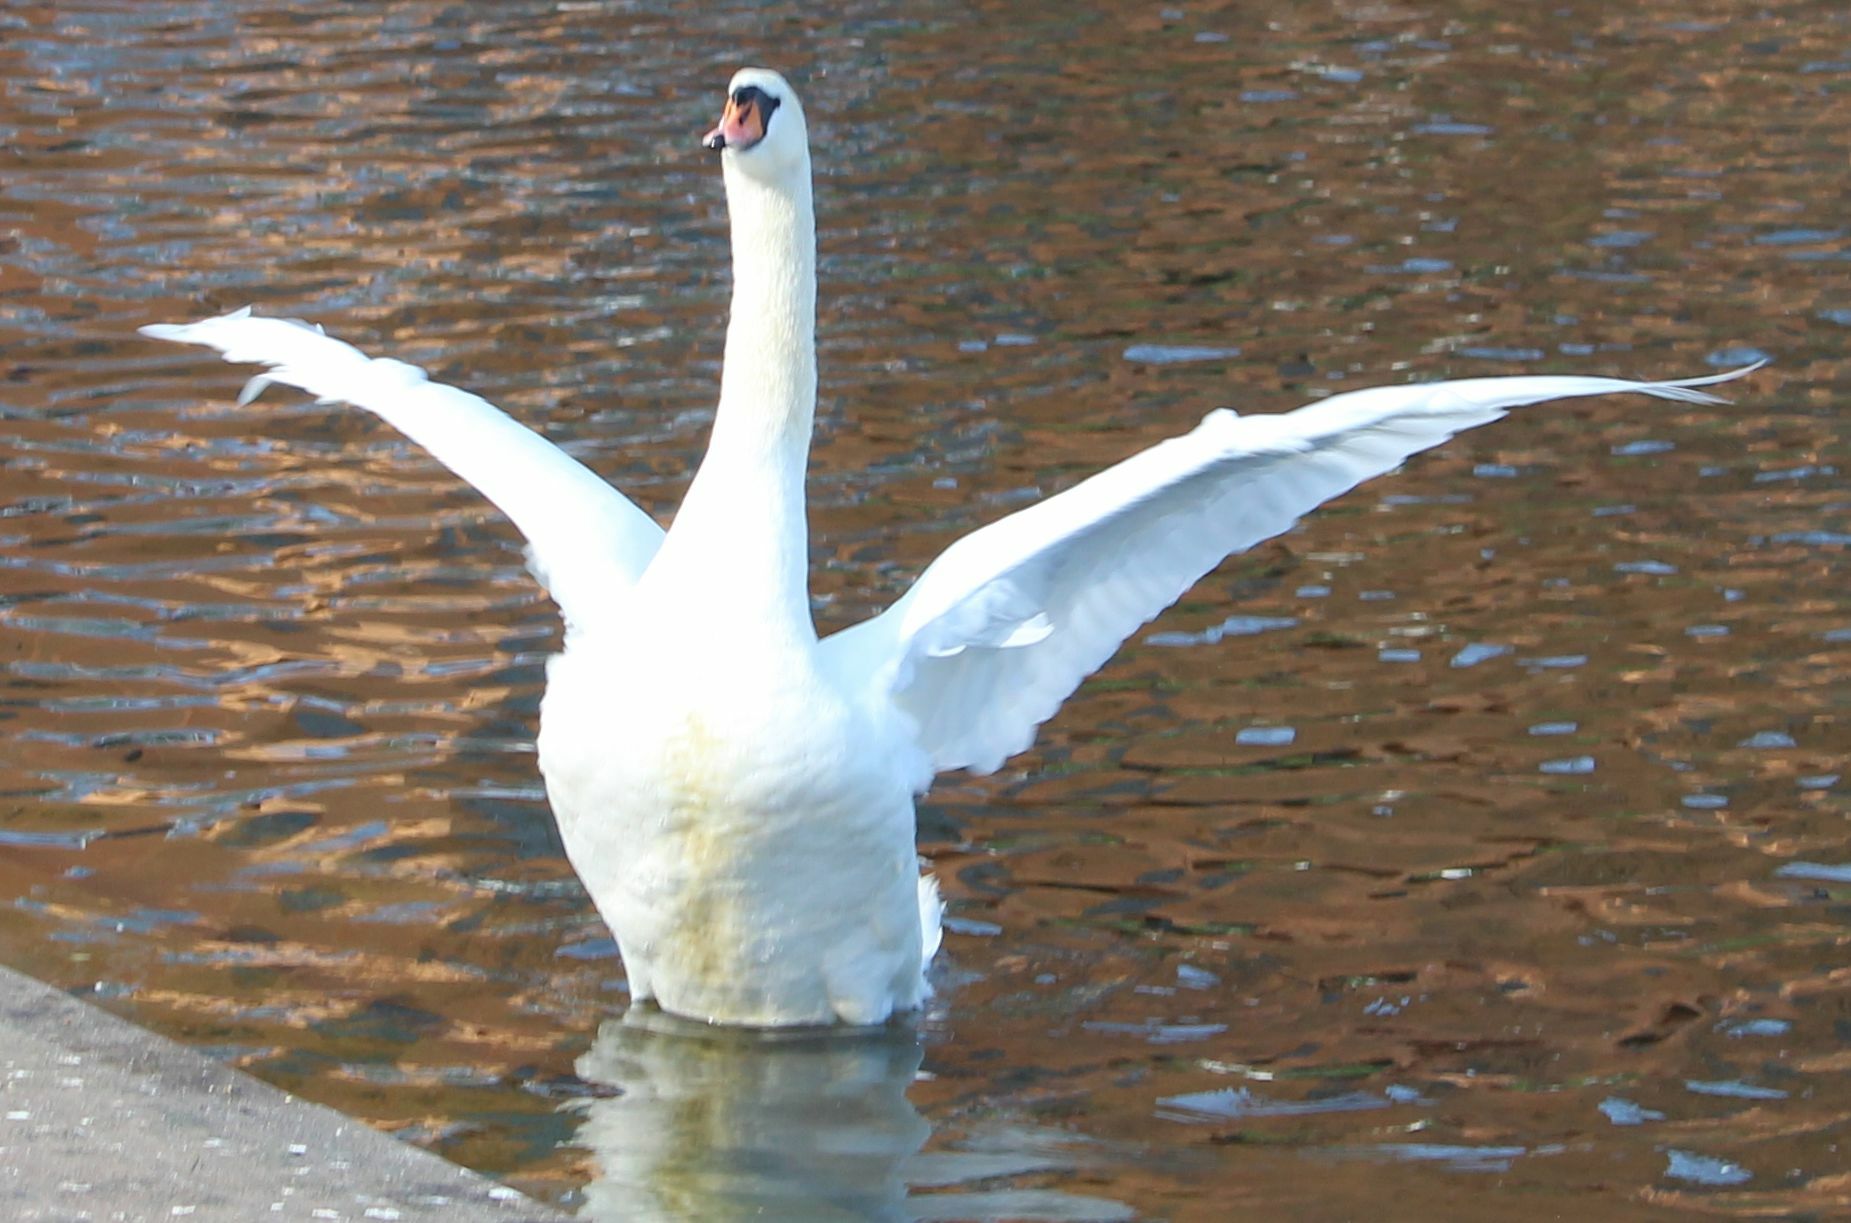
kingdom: Animalia
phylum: Chordata
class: Aves
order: Anseriformes
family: Anatidae
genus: Cygnus
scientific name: Cygnus olor
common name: Mute swan
